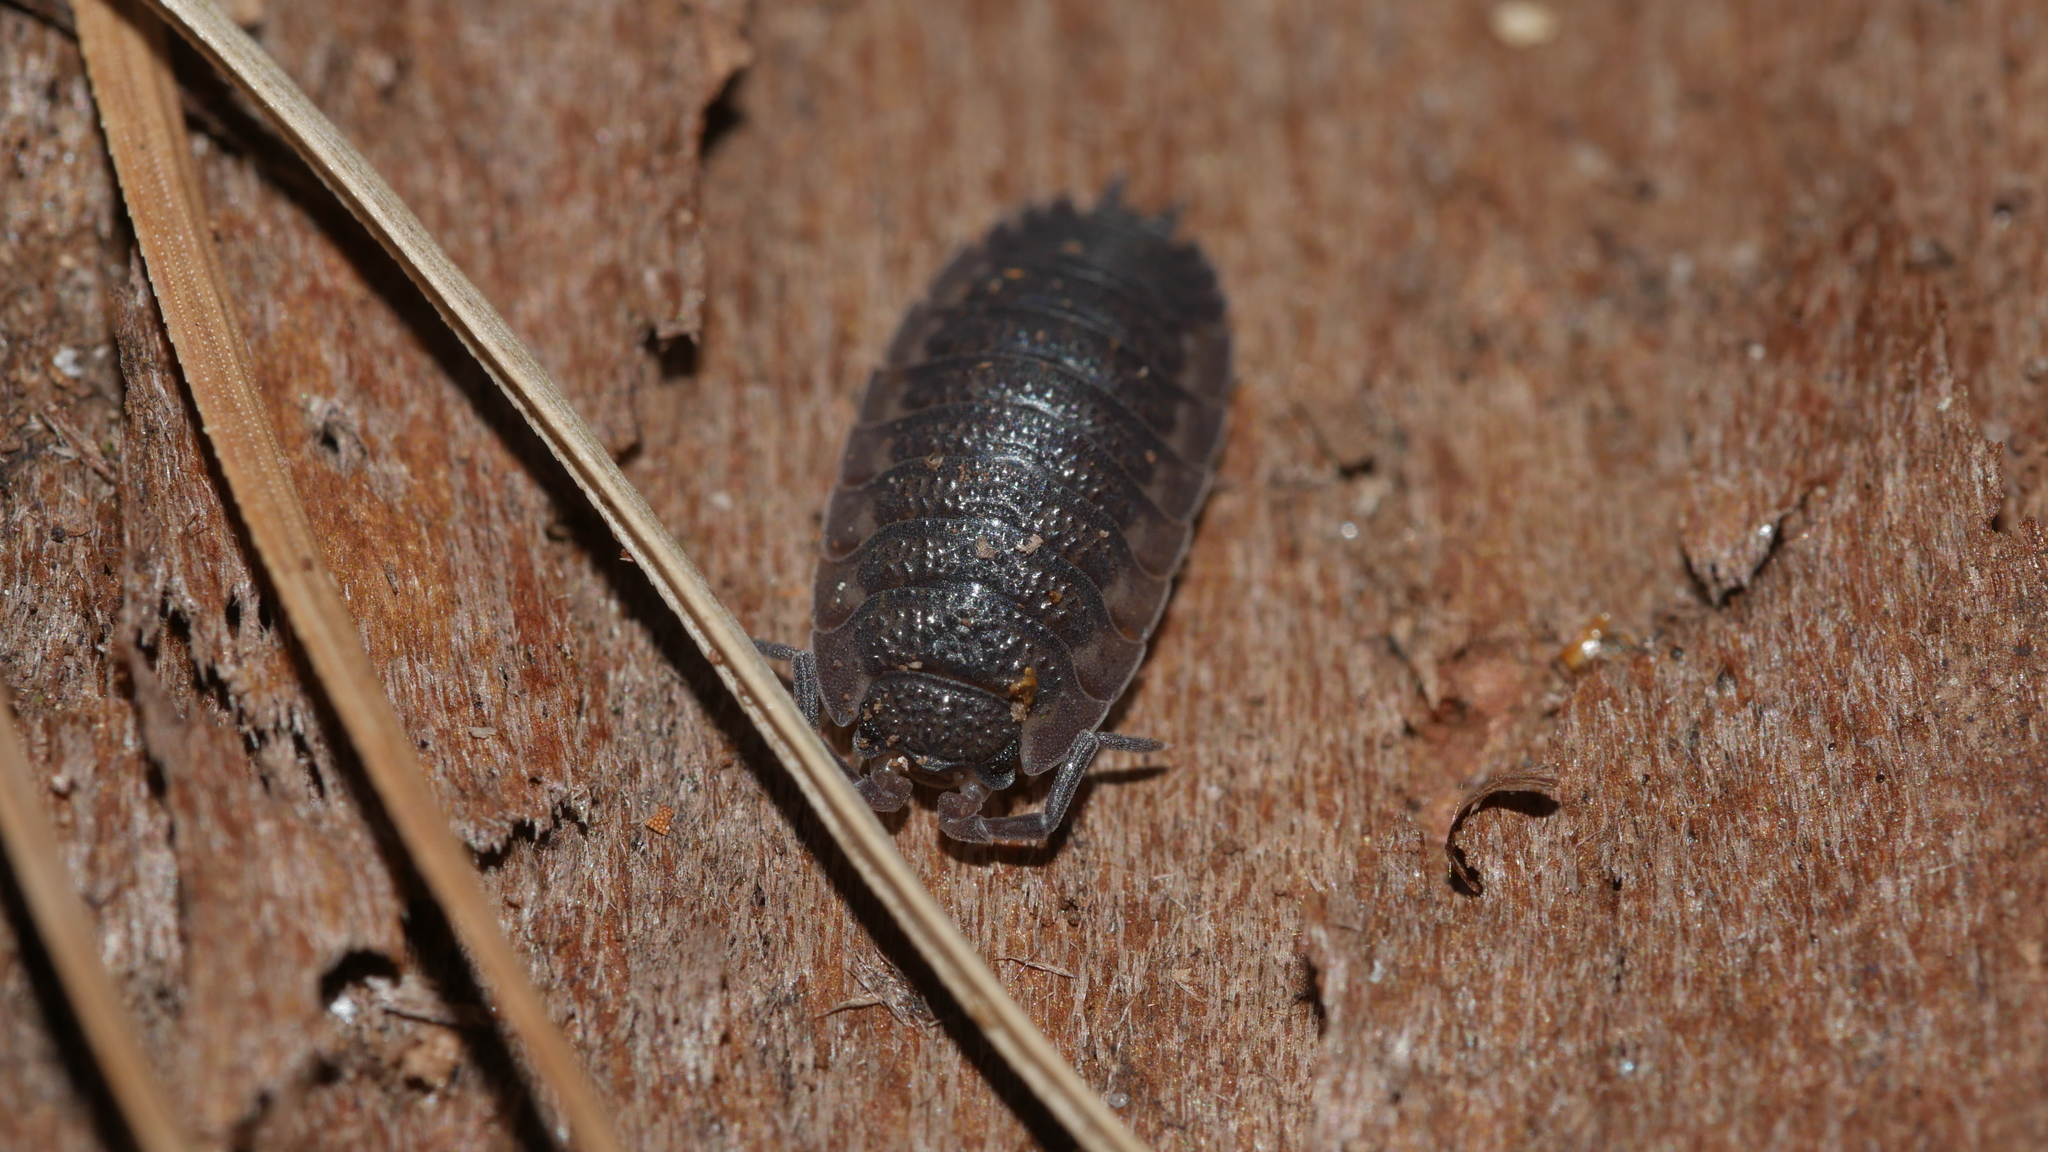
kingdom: Animalia
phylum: Arthropoda
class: Malacostraca
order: Isopoda
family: Porcellionidae
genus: Porcellio
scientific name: Porcellio scaber
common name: Common rough woodlouse
